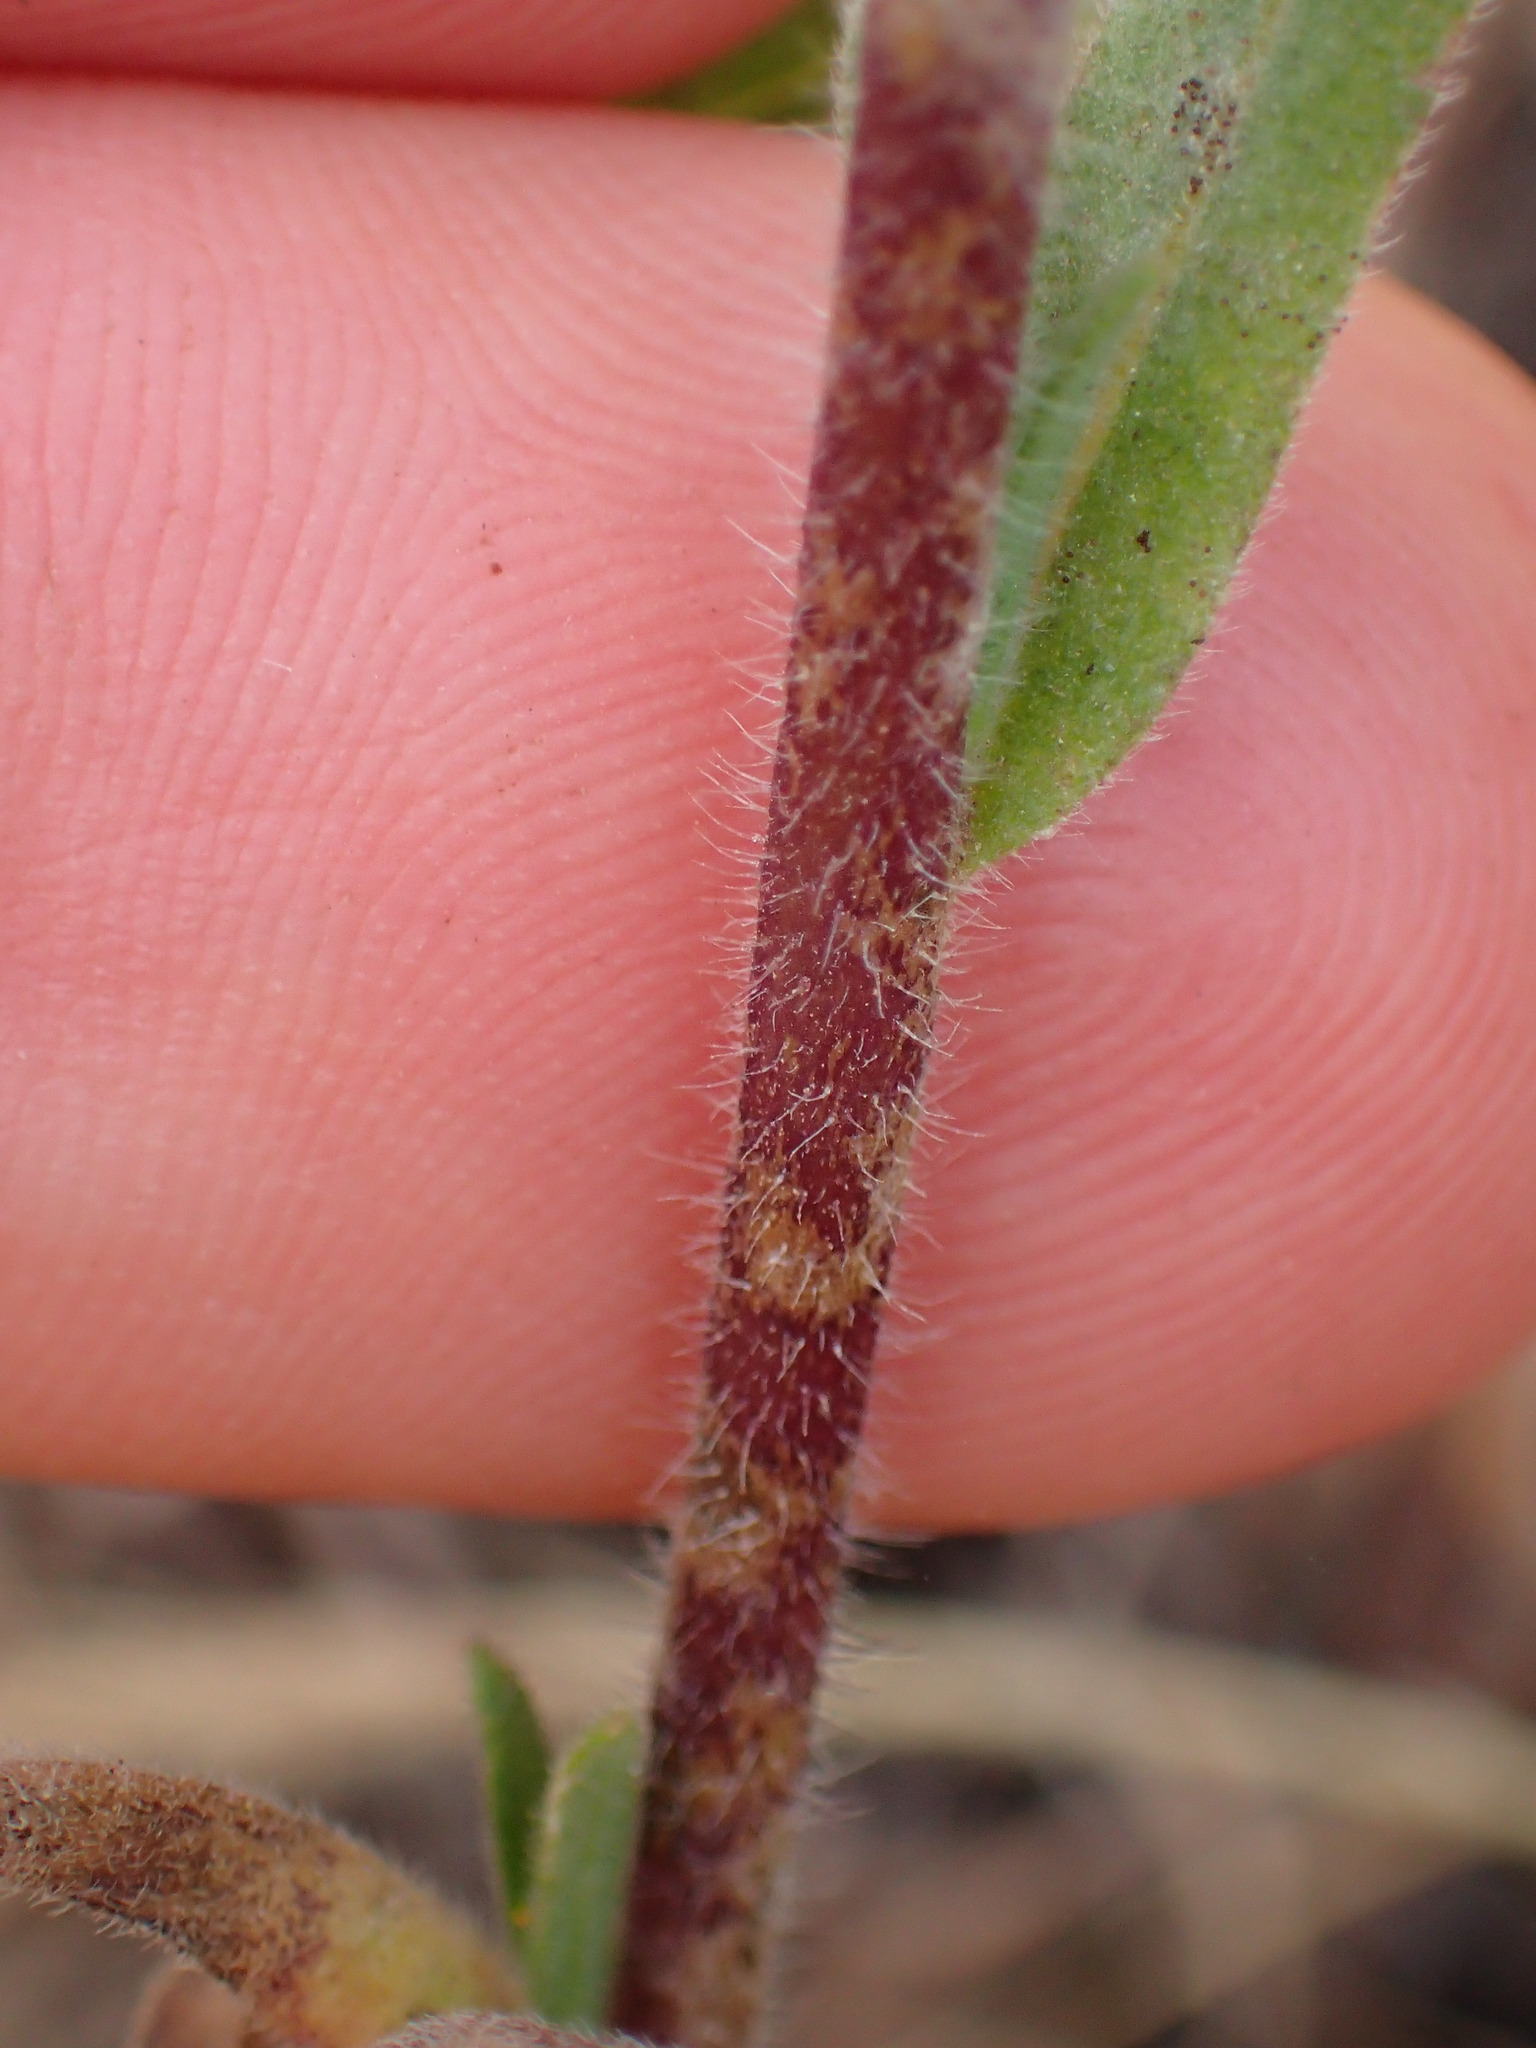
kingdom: Plantae
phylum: Tracheophyta
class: Magnoliopsida
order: Asterales
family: Asteraceae
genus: Madia
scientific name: Madia gracilis
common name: Grassy tarweed
